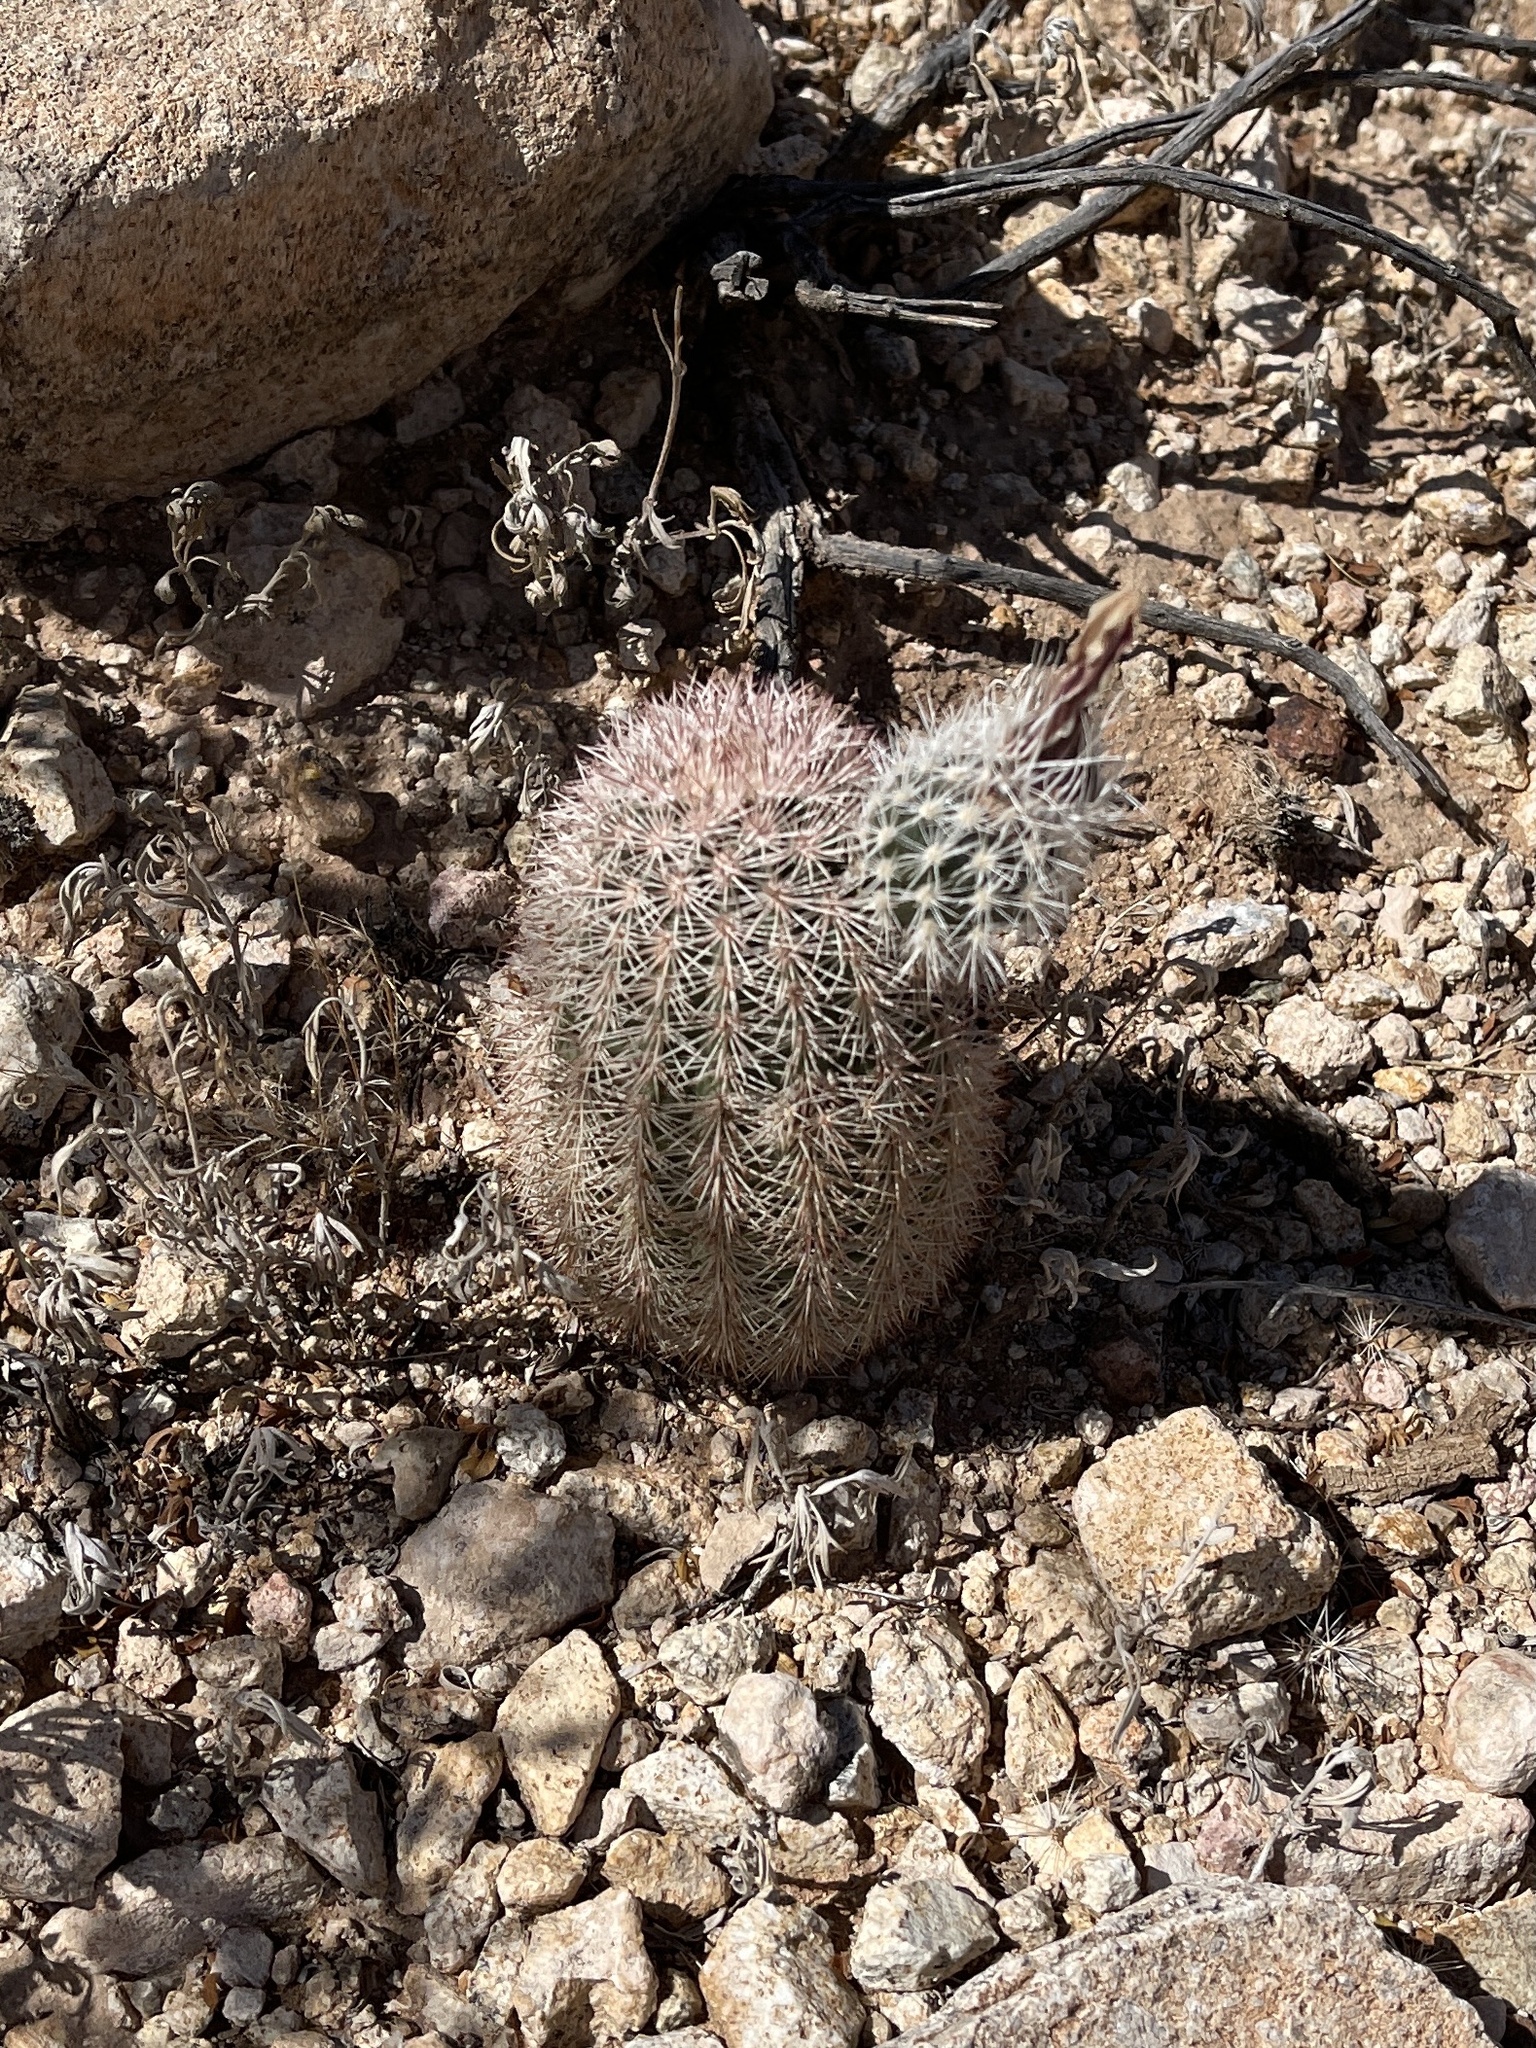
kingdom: Plantae
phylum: Tracheophyta
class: Magnoliopsida
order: Caryophyllales
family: Cactaceae
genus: Echinocereus
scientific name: Echinocereus dasyacanthus
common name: Spiny hedgehog cactus
